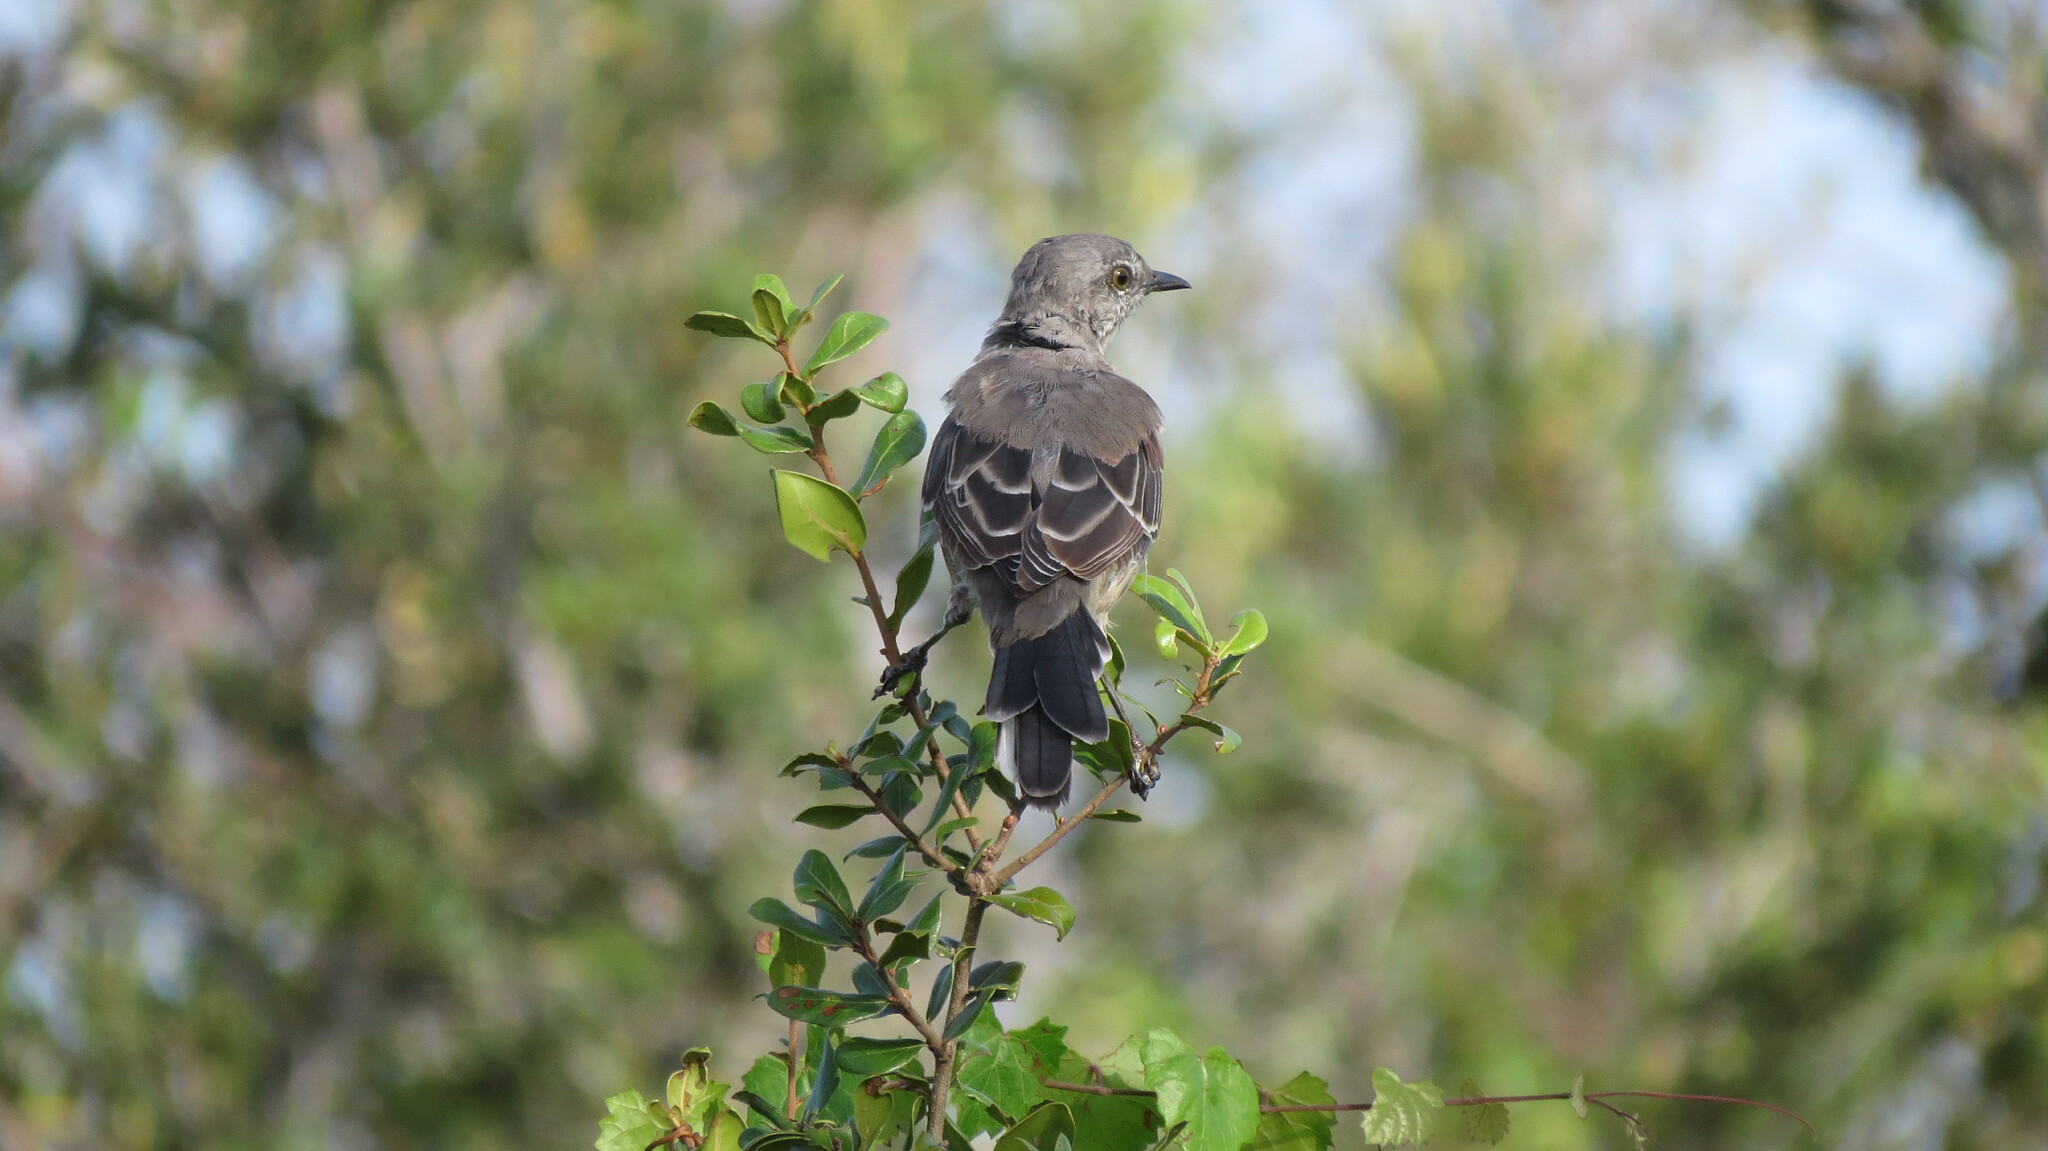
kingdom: Animalia
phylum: Chordata
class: Aves
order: Passeriformes
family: Mimidae
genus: Mimus
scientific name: Mimus polyglottos
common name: Northern mockingbird
